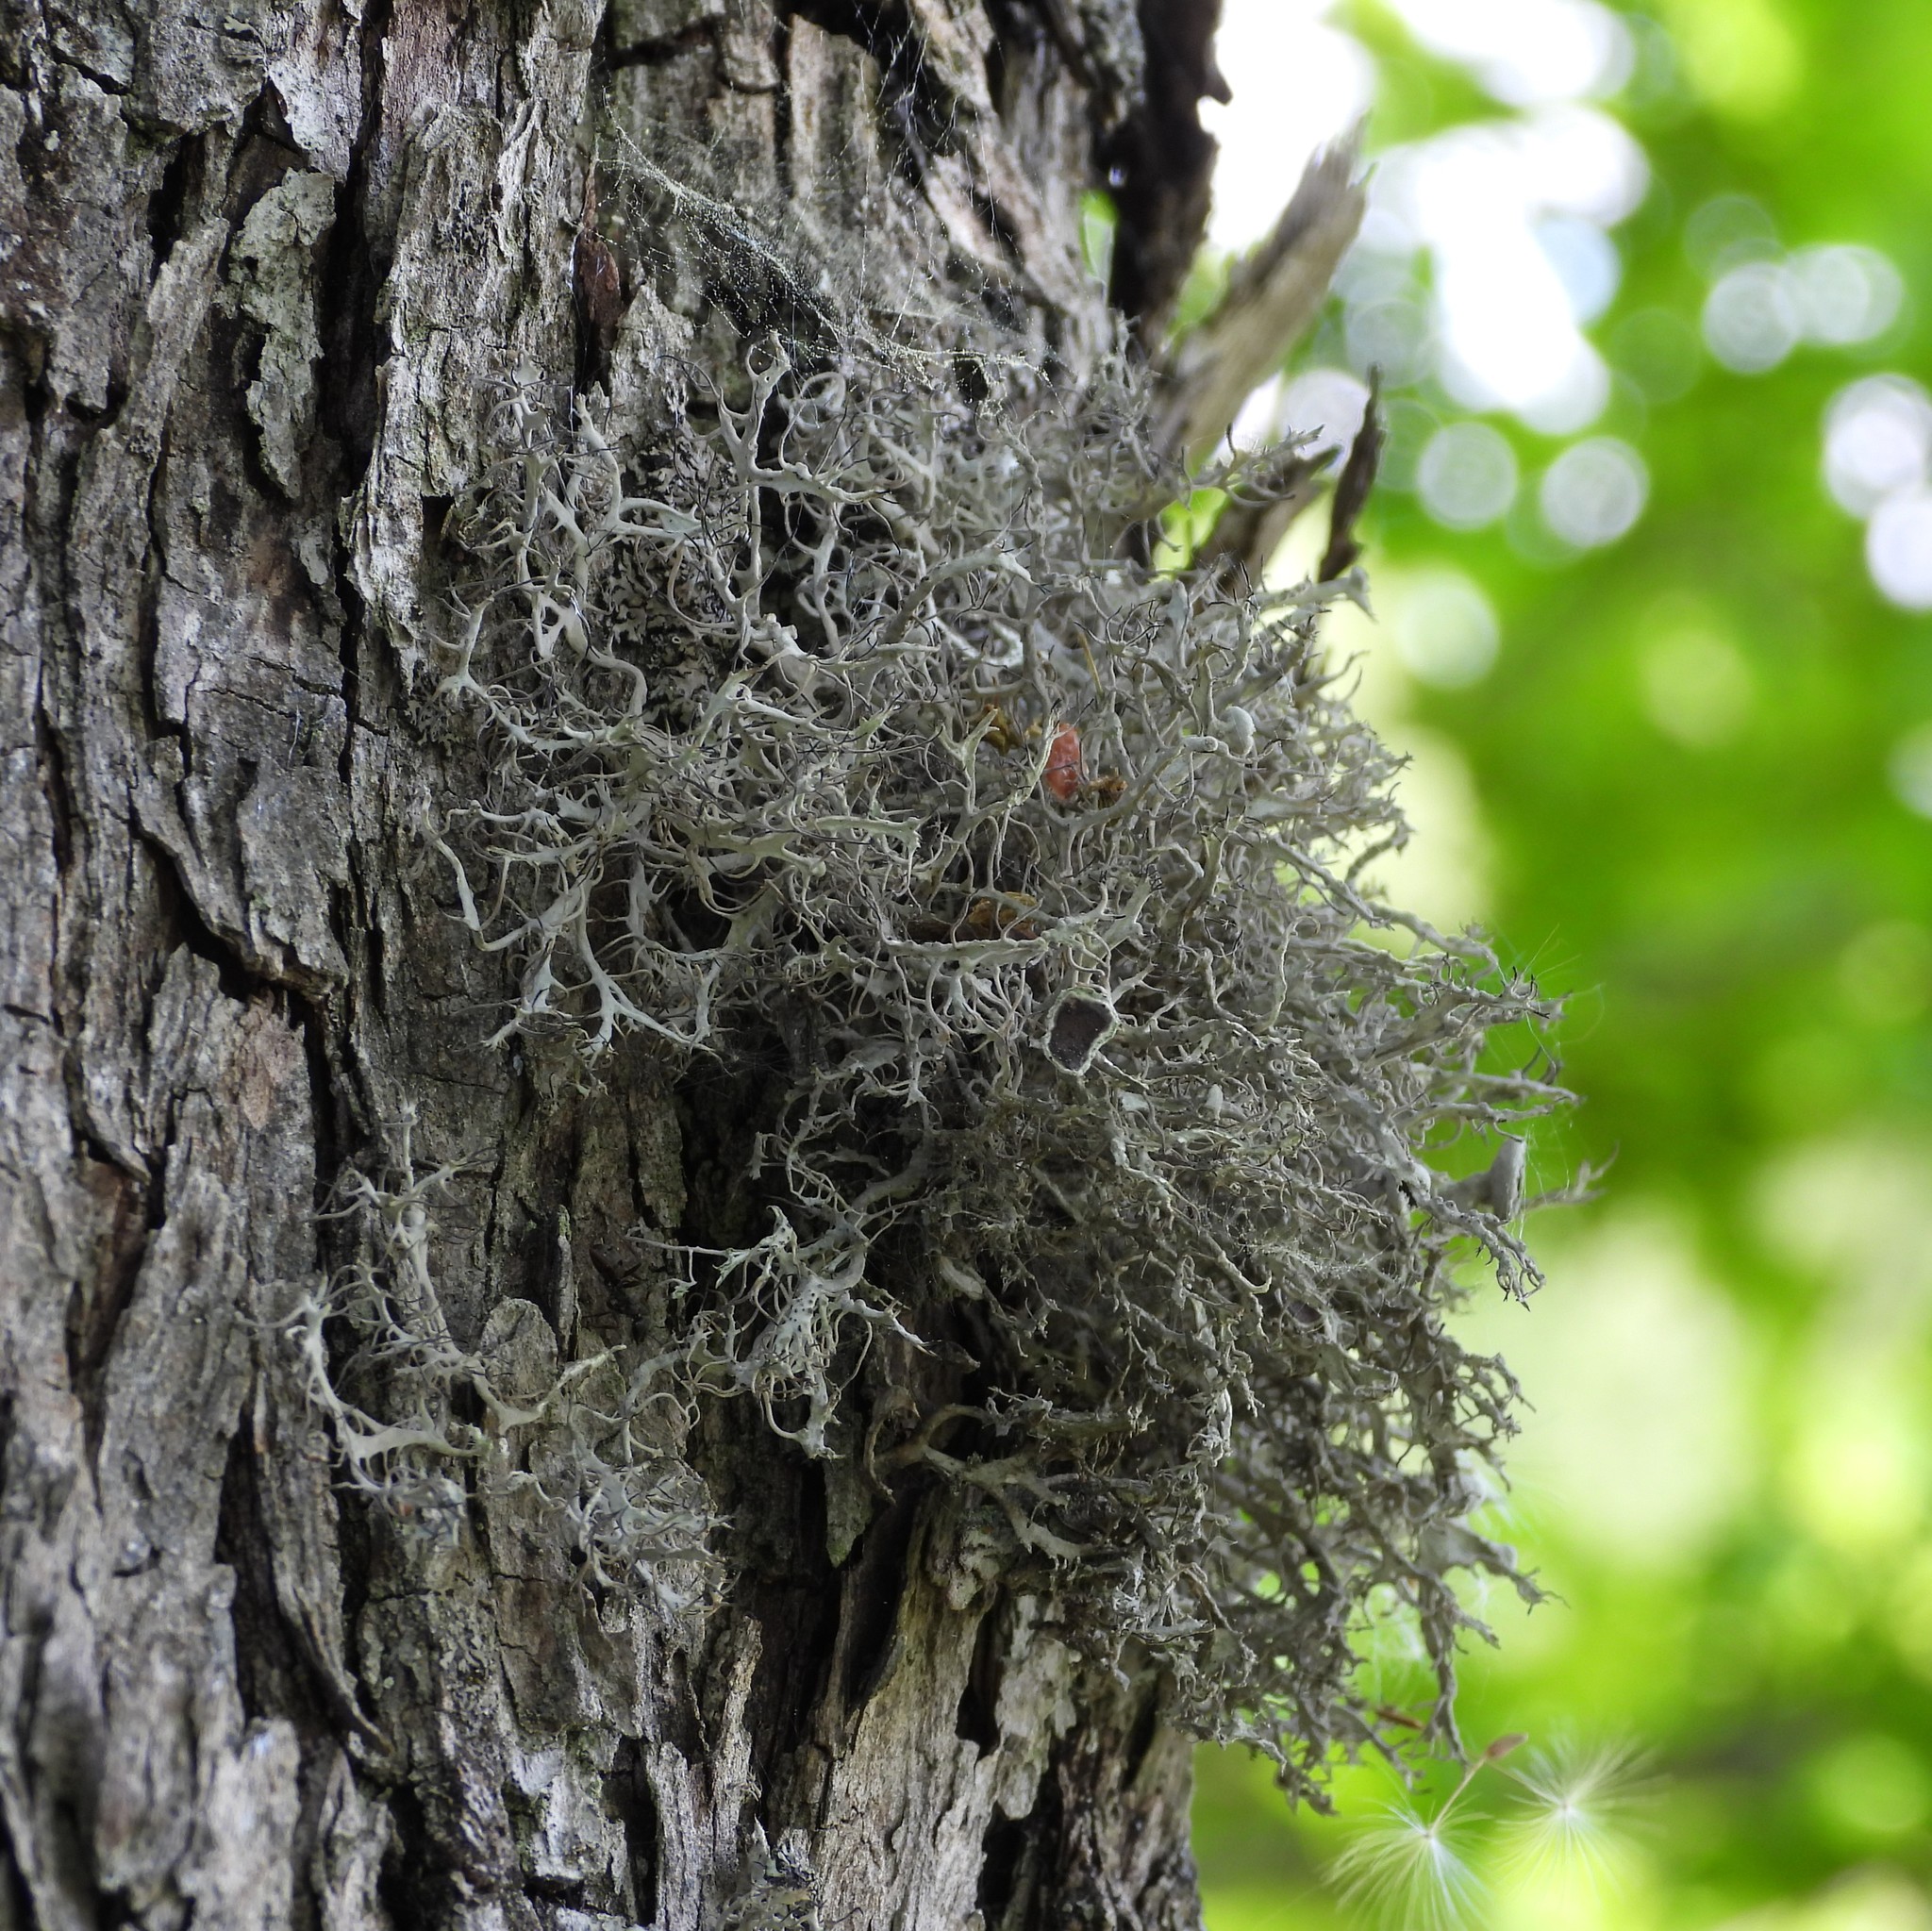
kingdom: Fungi
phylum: Ascomycota
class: Lecanoromycetes
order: Caliciales
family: Physciaceae
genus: Anaptychia
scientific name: Anaptychia ciliaris
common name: Great ciliated lichen
